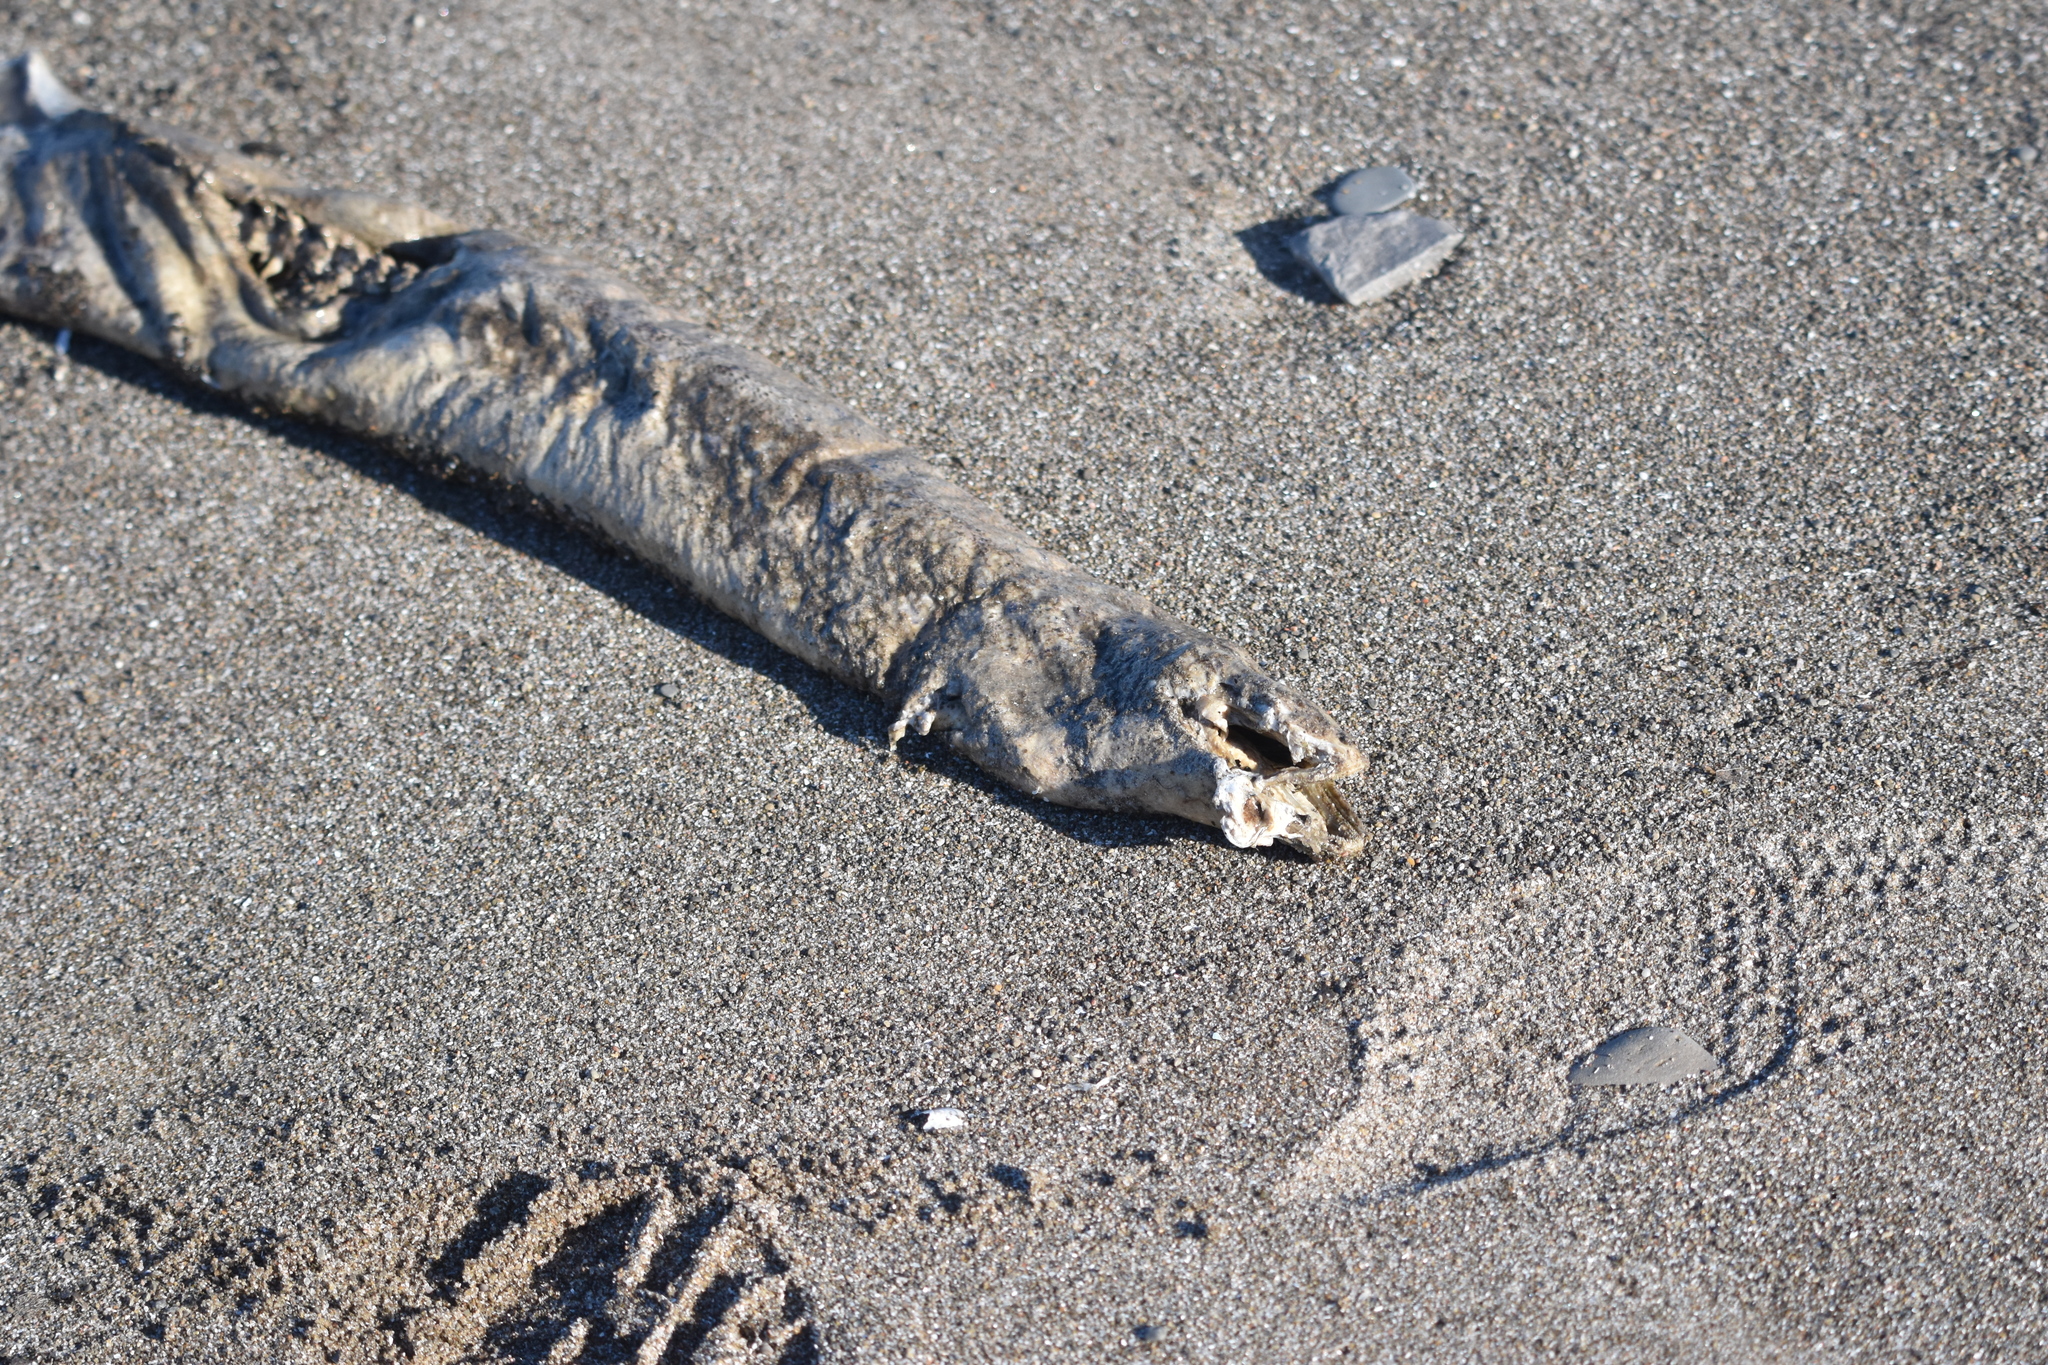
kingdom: Animalia
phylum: Chordata
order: Anguilliformes
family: Anguillidae
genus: Anguilla
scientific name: Anguilla rostrata
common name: American eel
